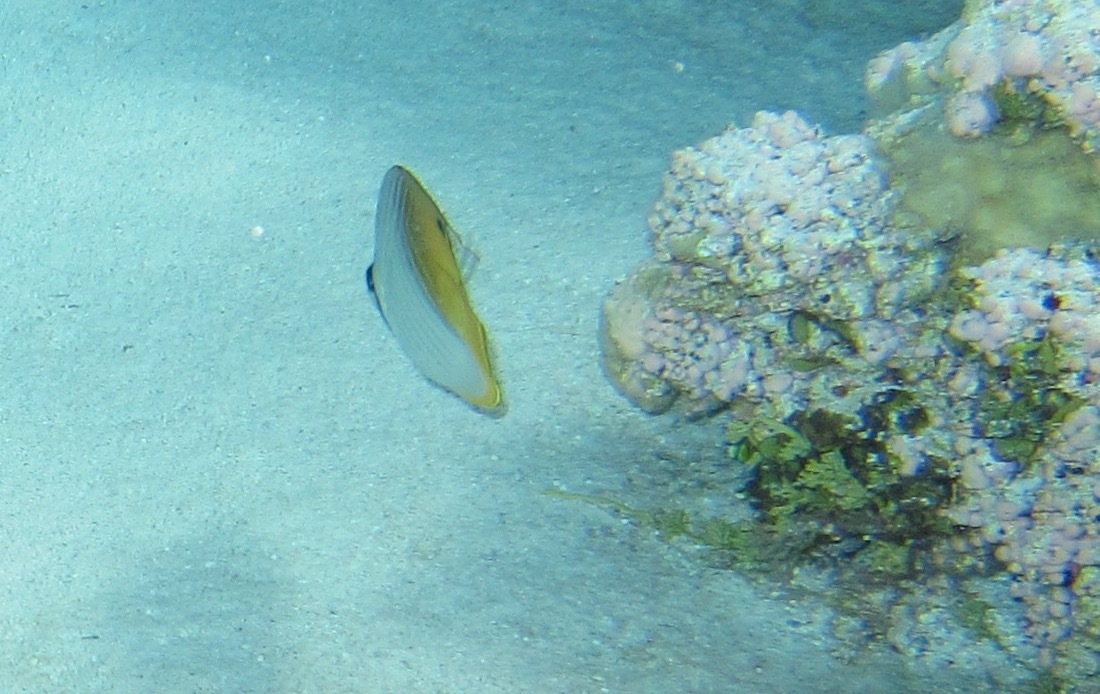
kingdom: Animalia
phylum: Chordata
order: Perciformes
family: Chaetodontidae
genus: Chaetodon
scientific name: Chaetodon auriga
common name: Threadfin butterflyfish
